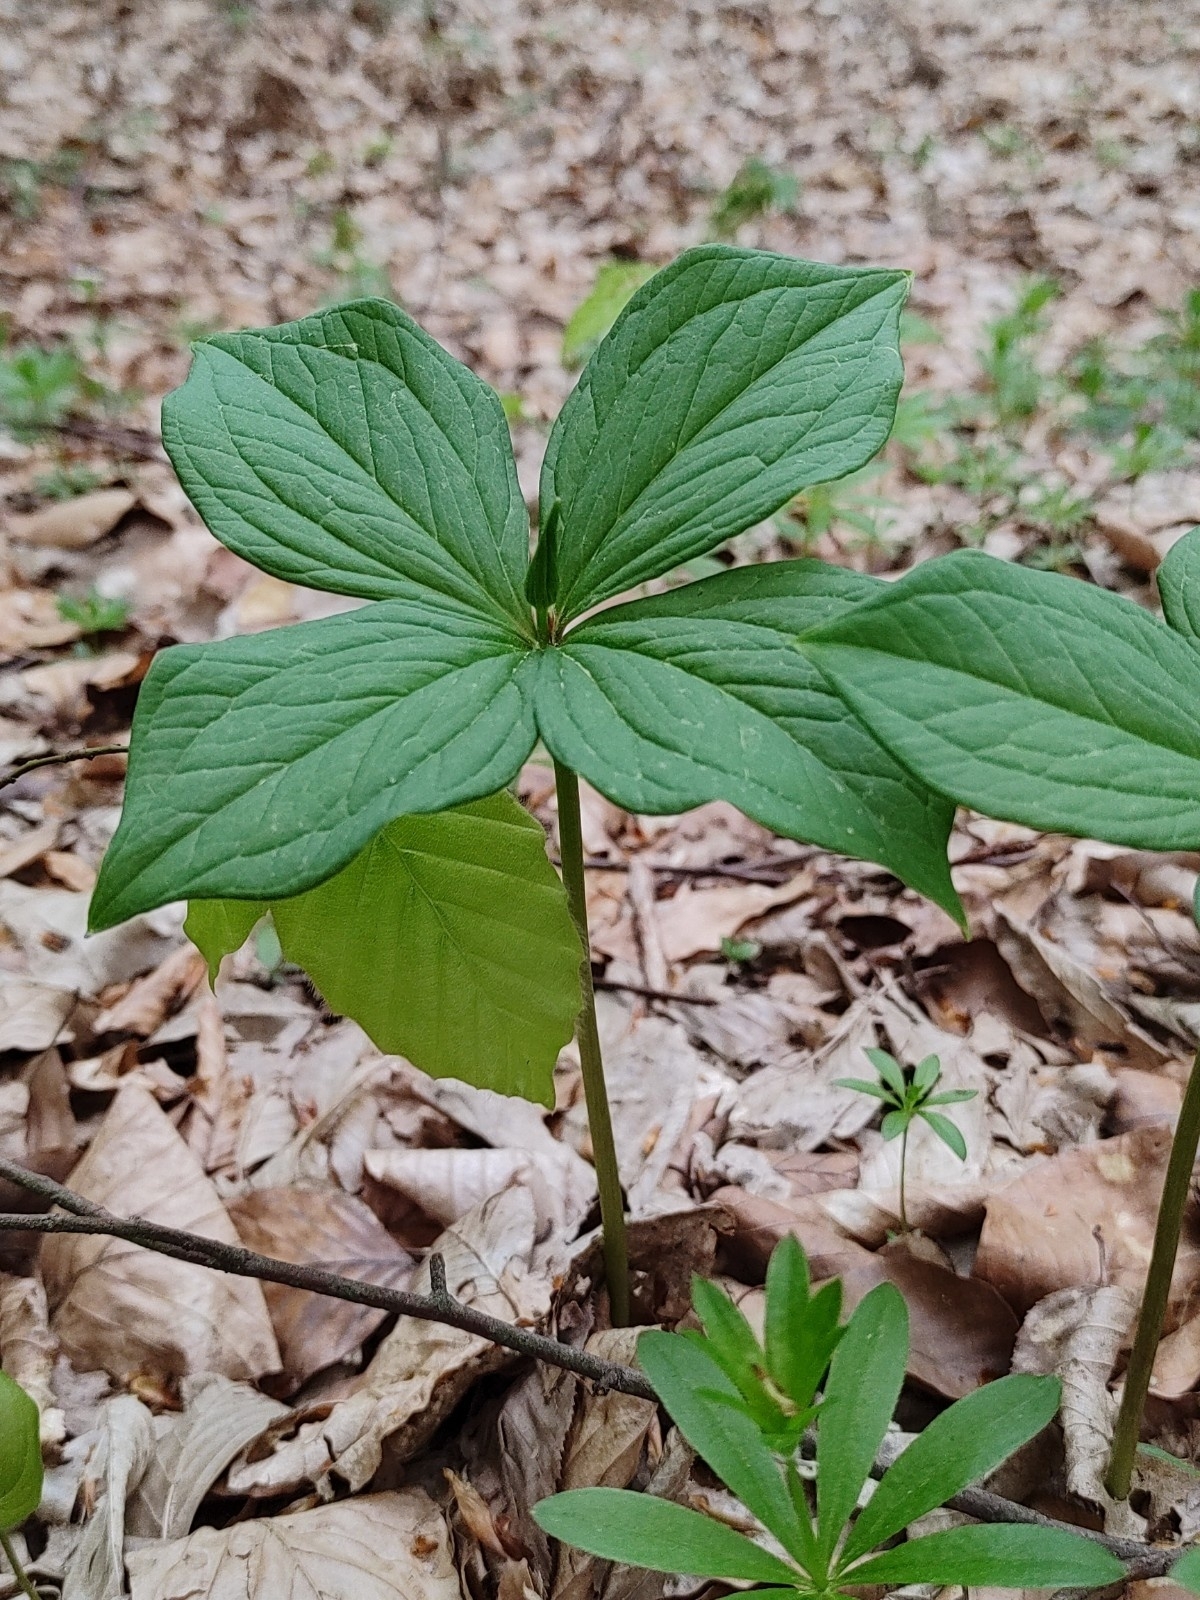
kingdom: Plantae
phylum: Tracheophyta
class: Liliopsida
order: Liliales
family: Melanthiaceae
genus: Paris
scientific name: Paris quadrifolia
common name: Herb-paris
